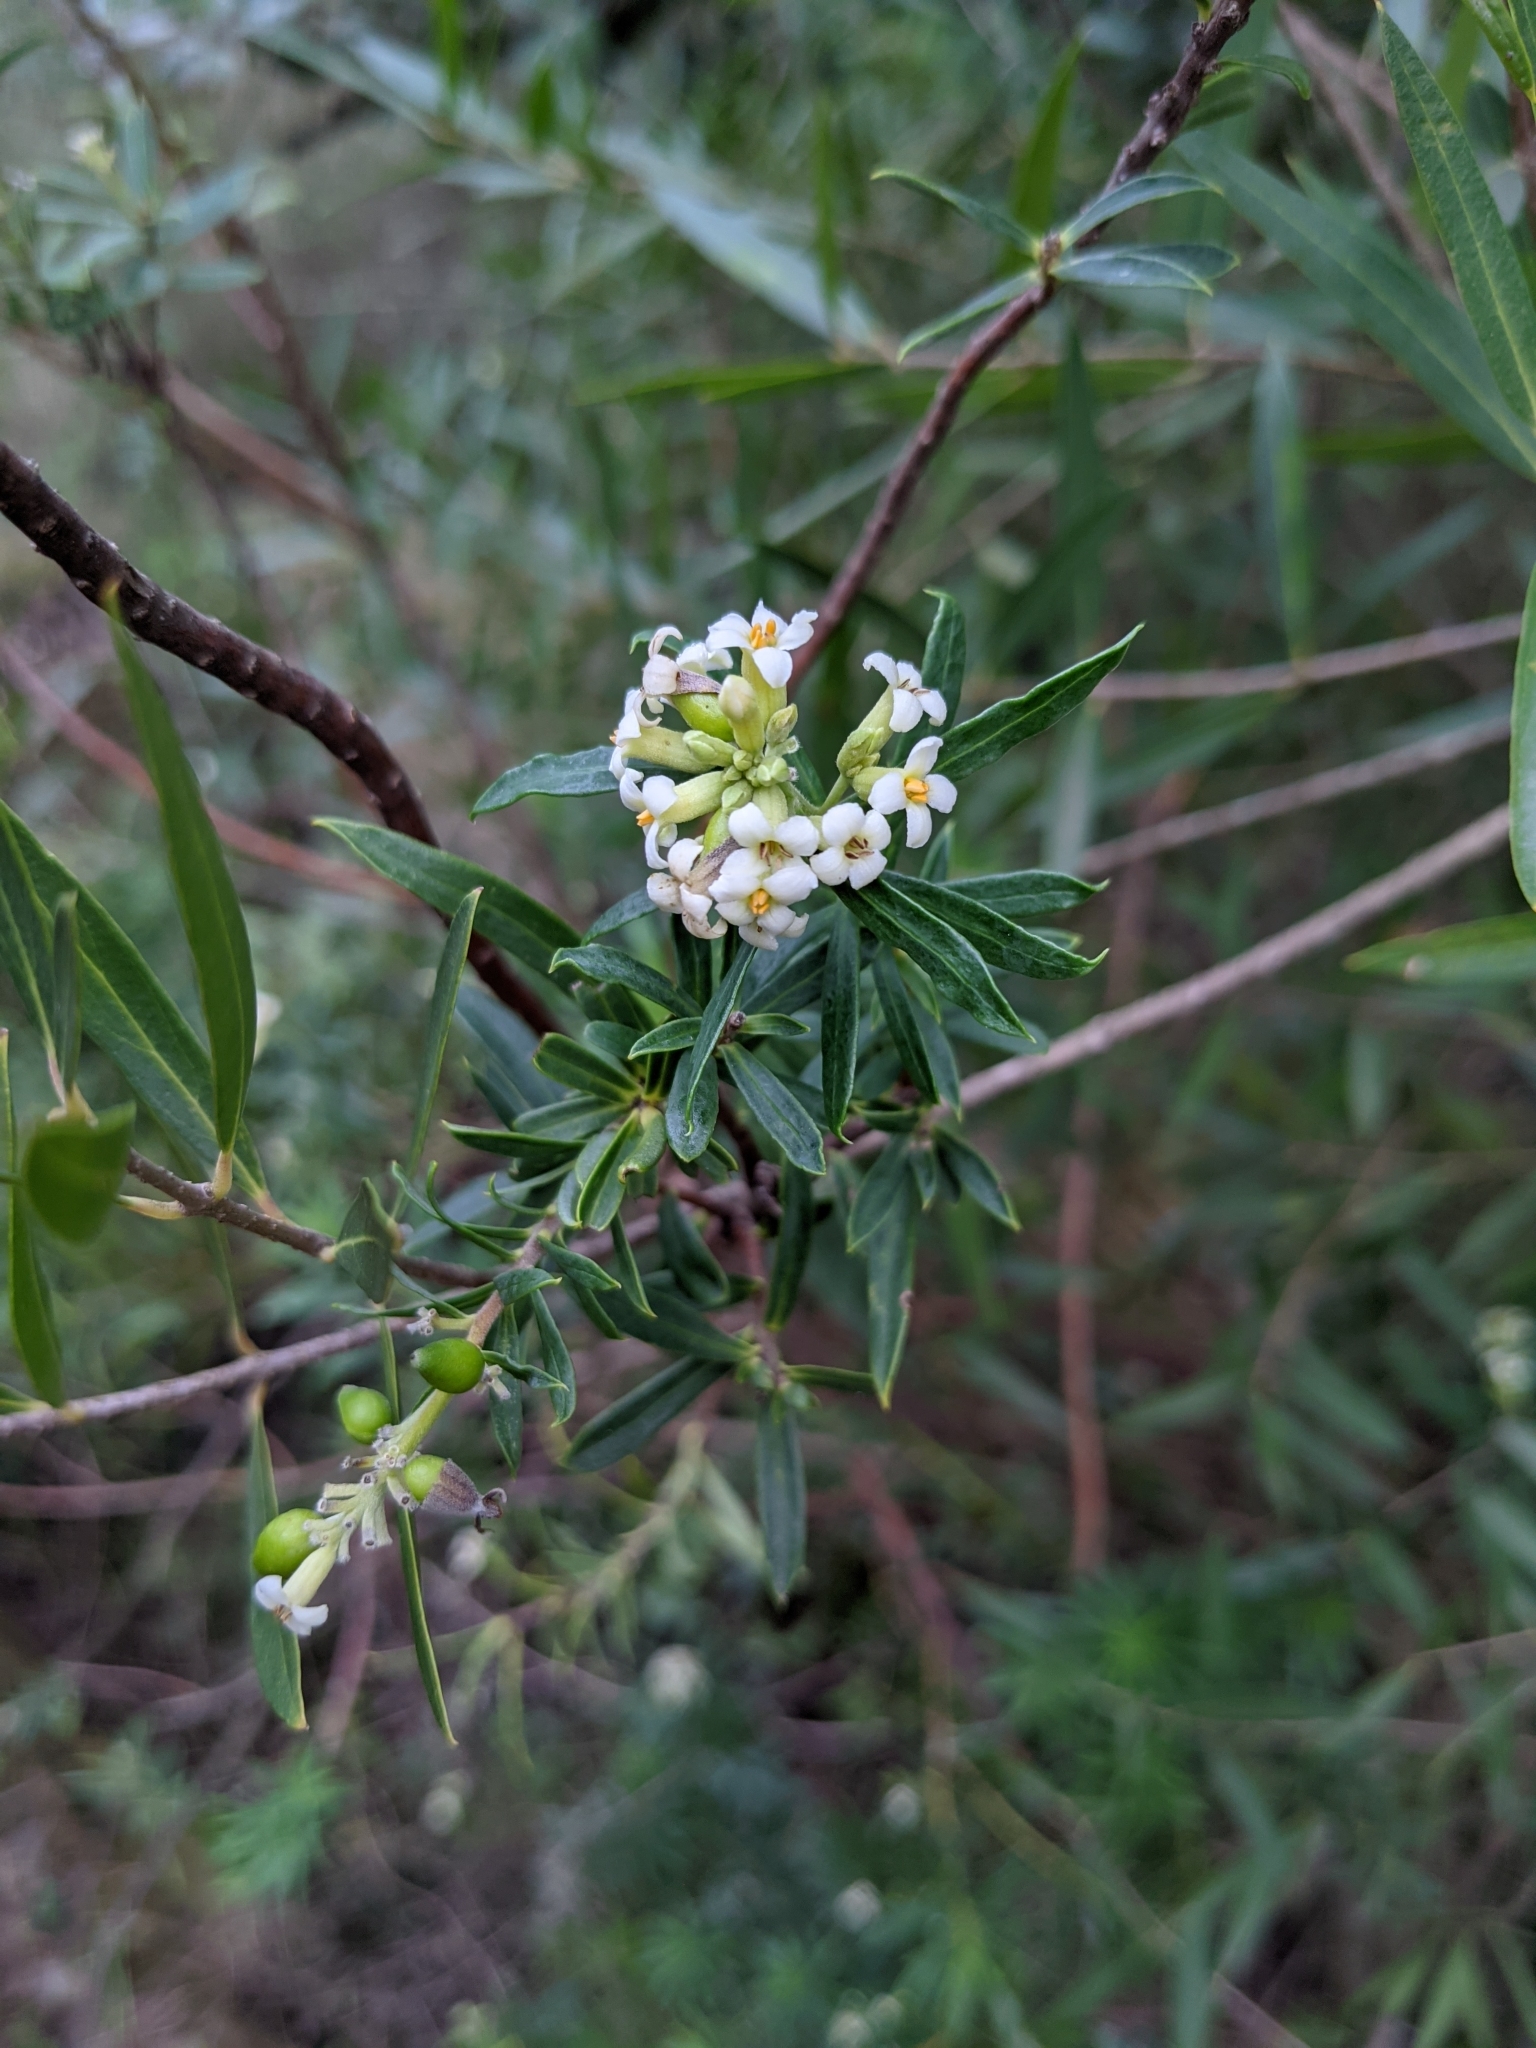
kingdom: Plantae
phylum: Tracheophyta
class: Magnoliopsida
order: Malvales
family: Thymelaeaceae
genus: Daphne
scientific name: Daphne gnidium
